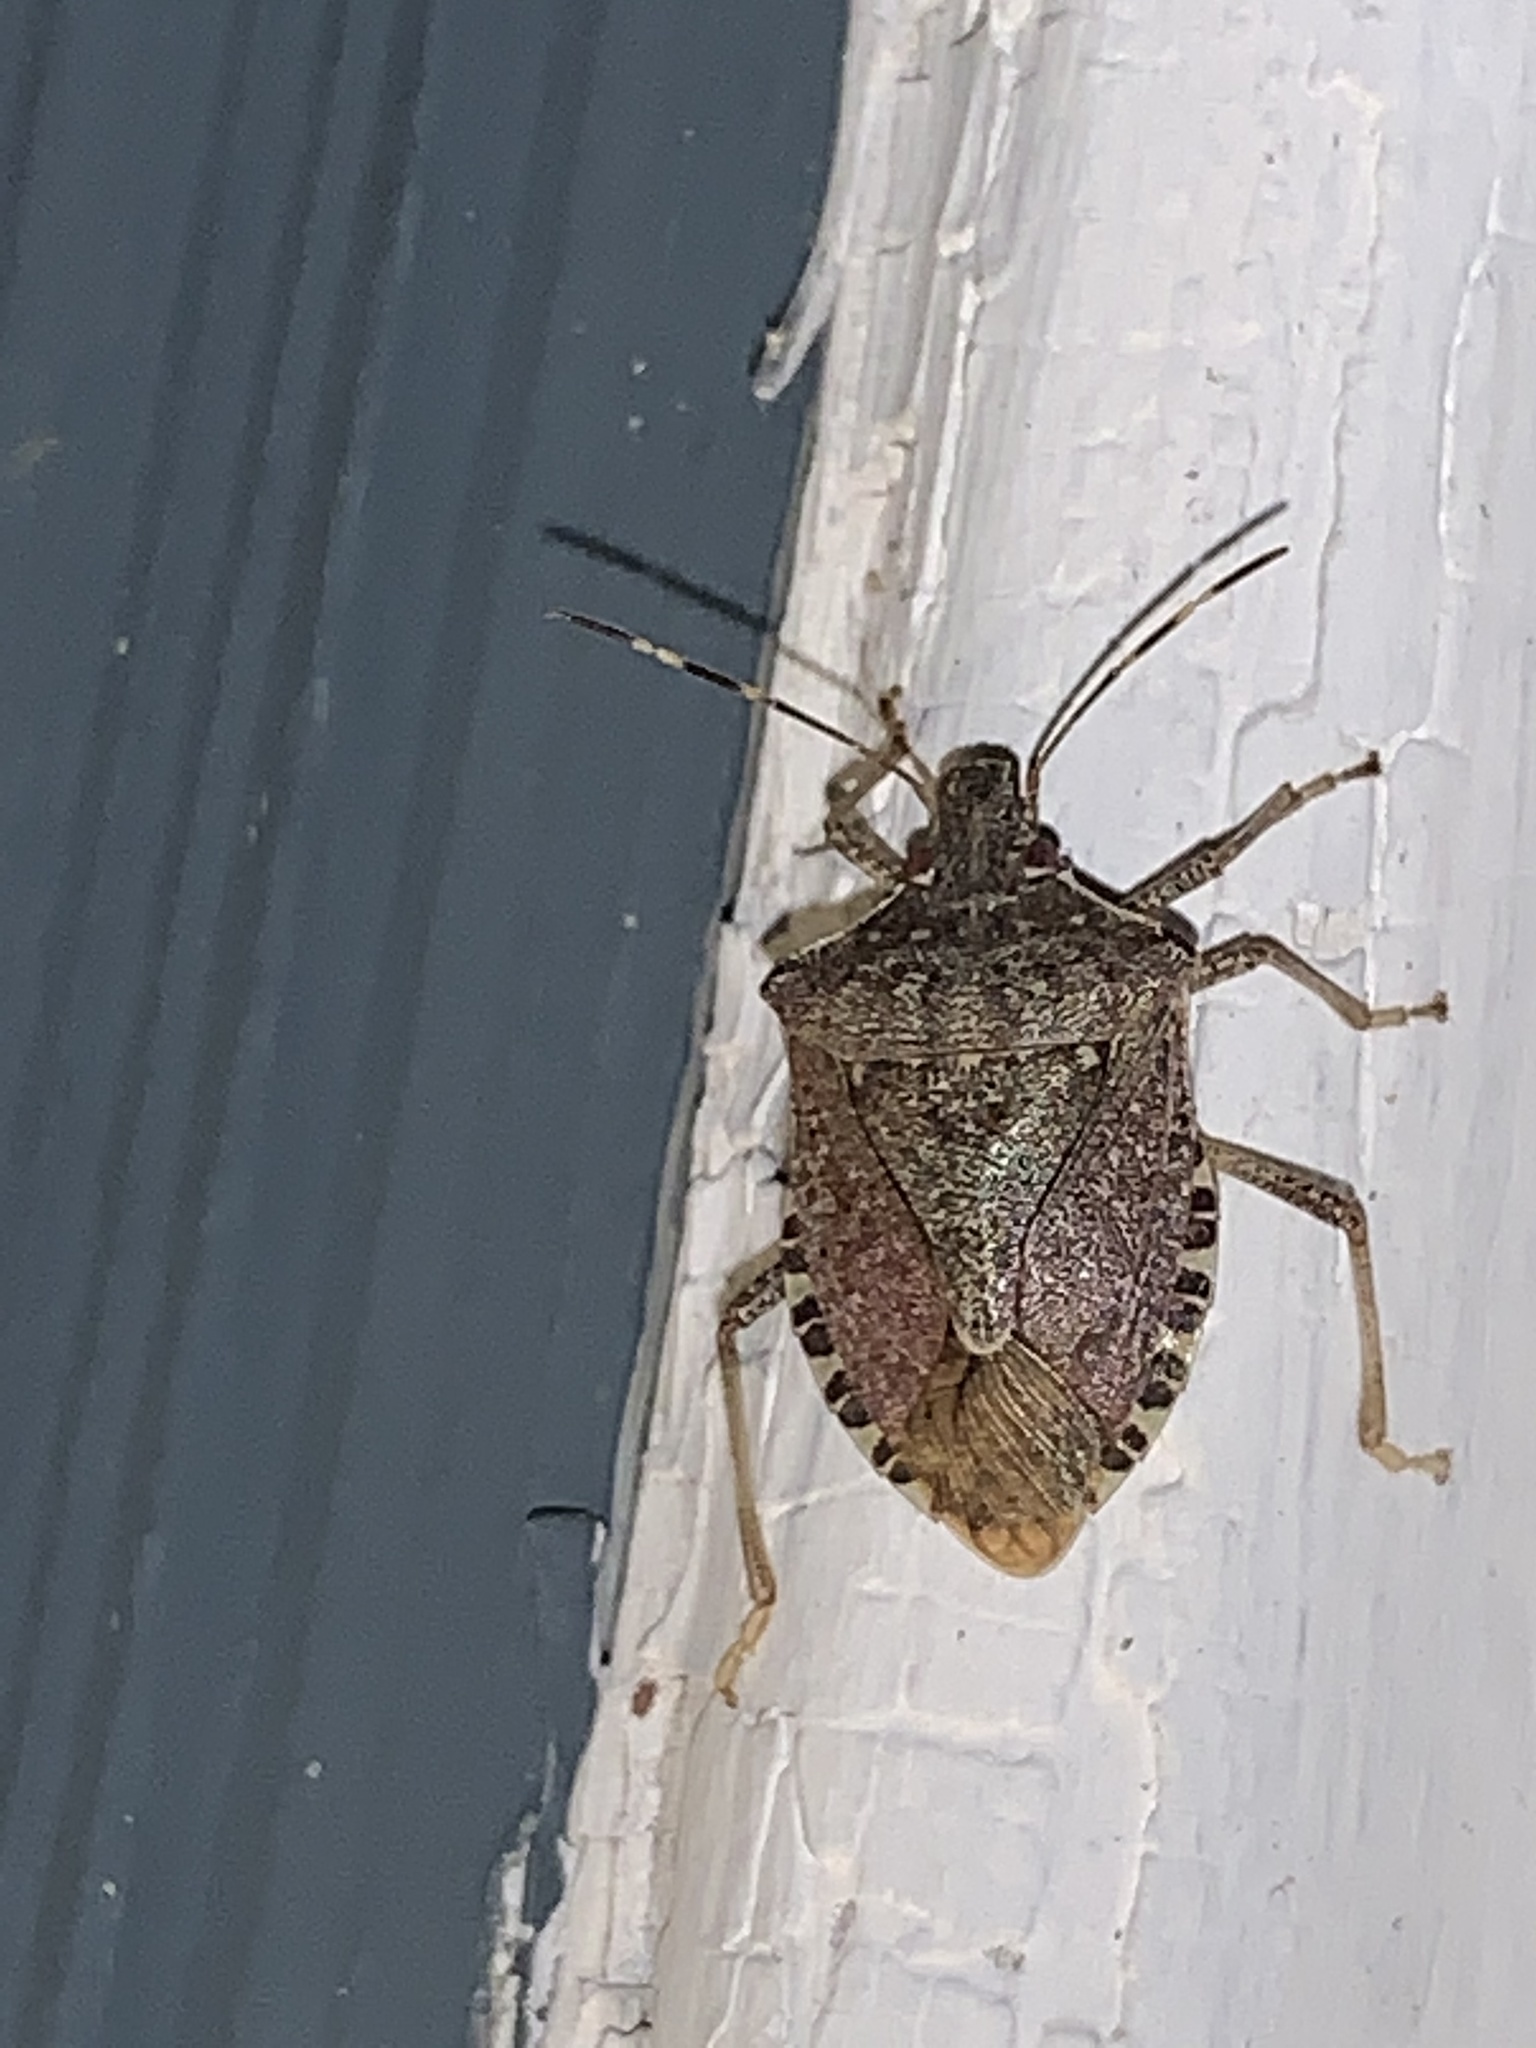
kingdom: Animalia
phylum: Arthropoda
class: Insecta
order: Hemiptera
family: Pentatomidae
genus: Halyomorpha
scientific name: Halyomorpha halys
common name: Brown marmorated stink bug
